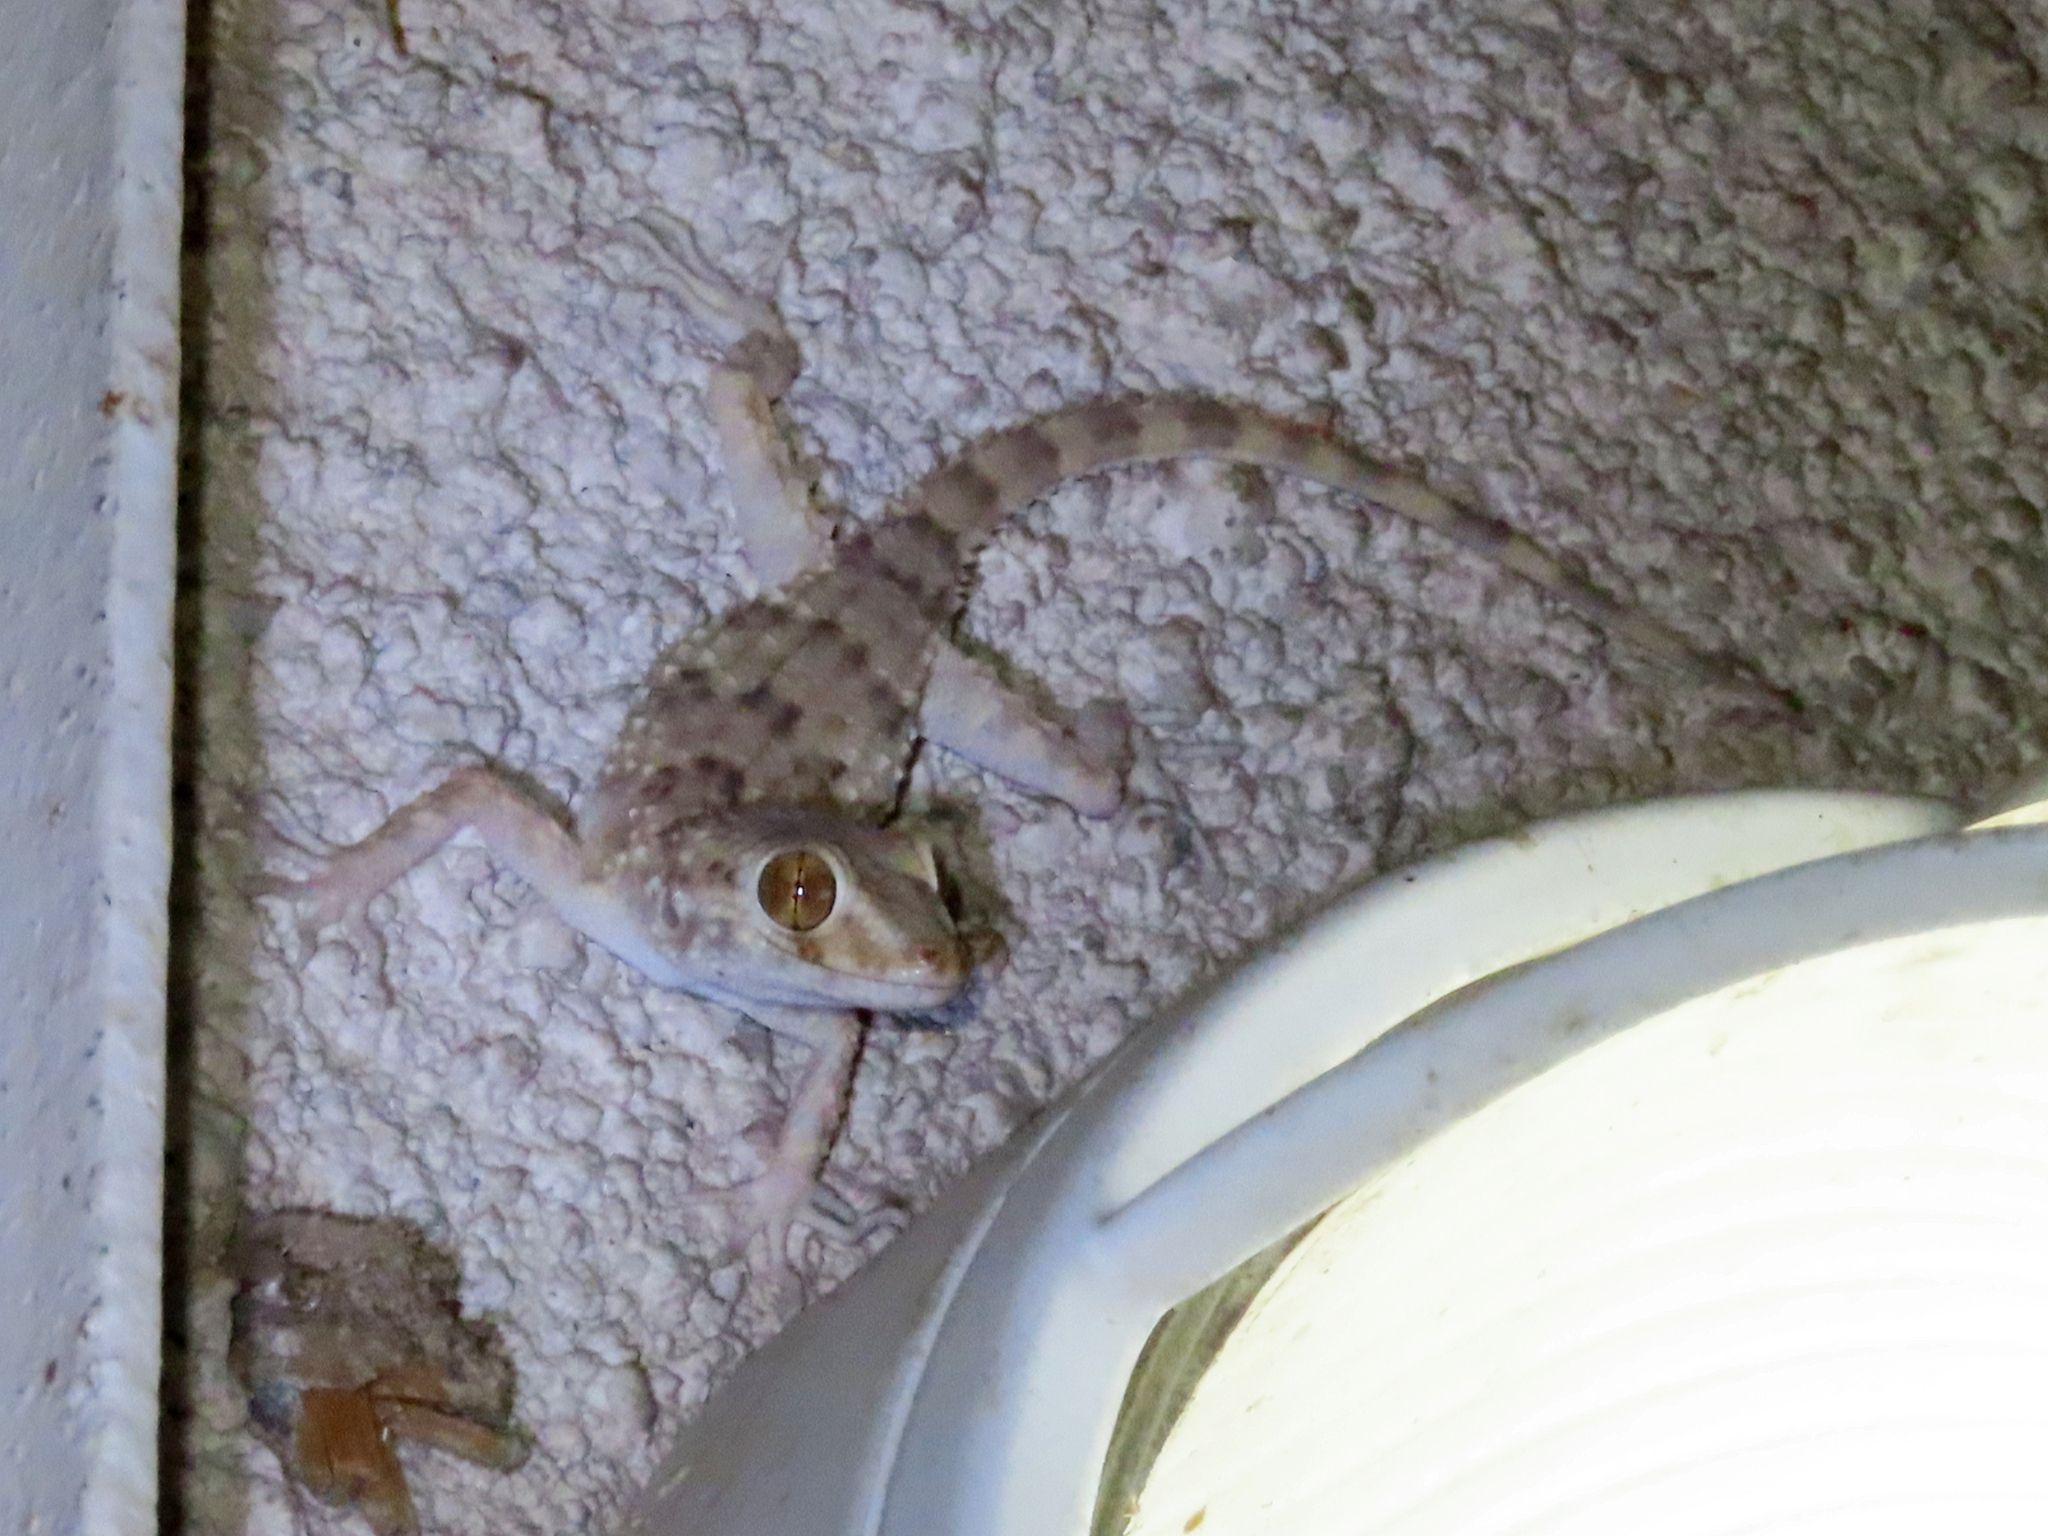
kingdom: Animalia
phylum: Chordata
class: Squamata
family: Gekkonidae
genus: Tenuidactylus
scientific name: Tenuidactylus caspius
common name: Caspian bent-toed gecko
